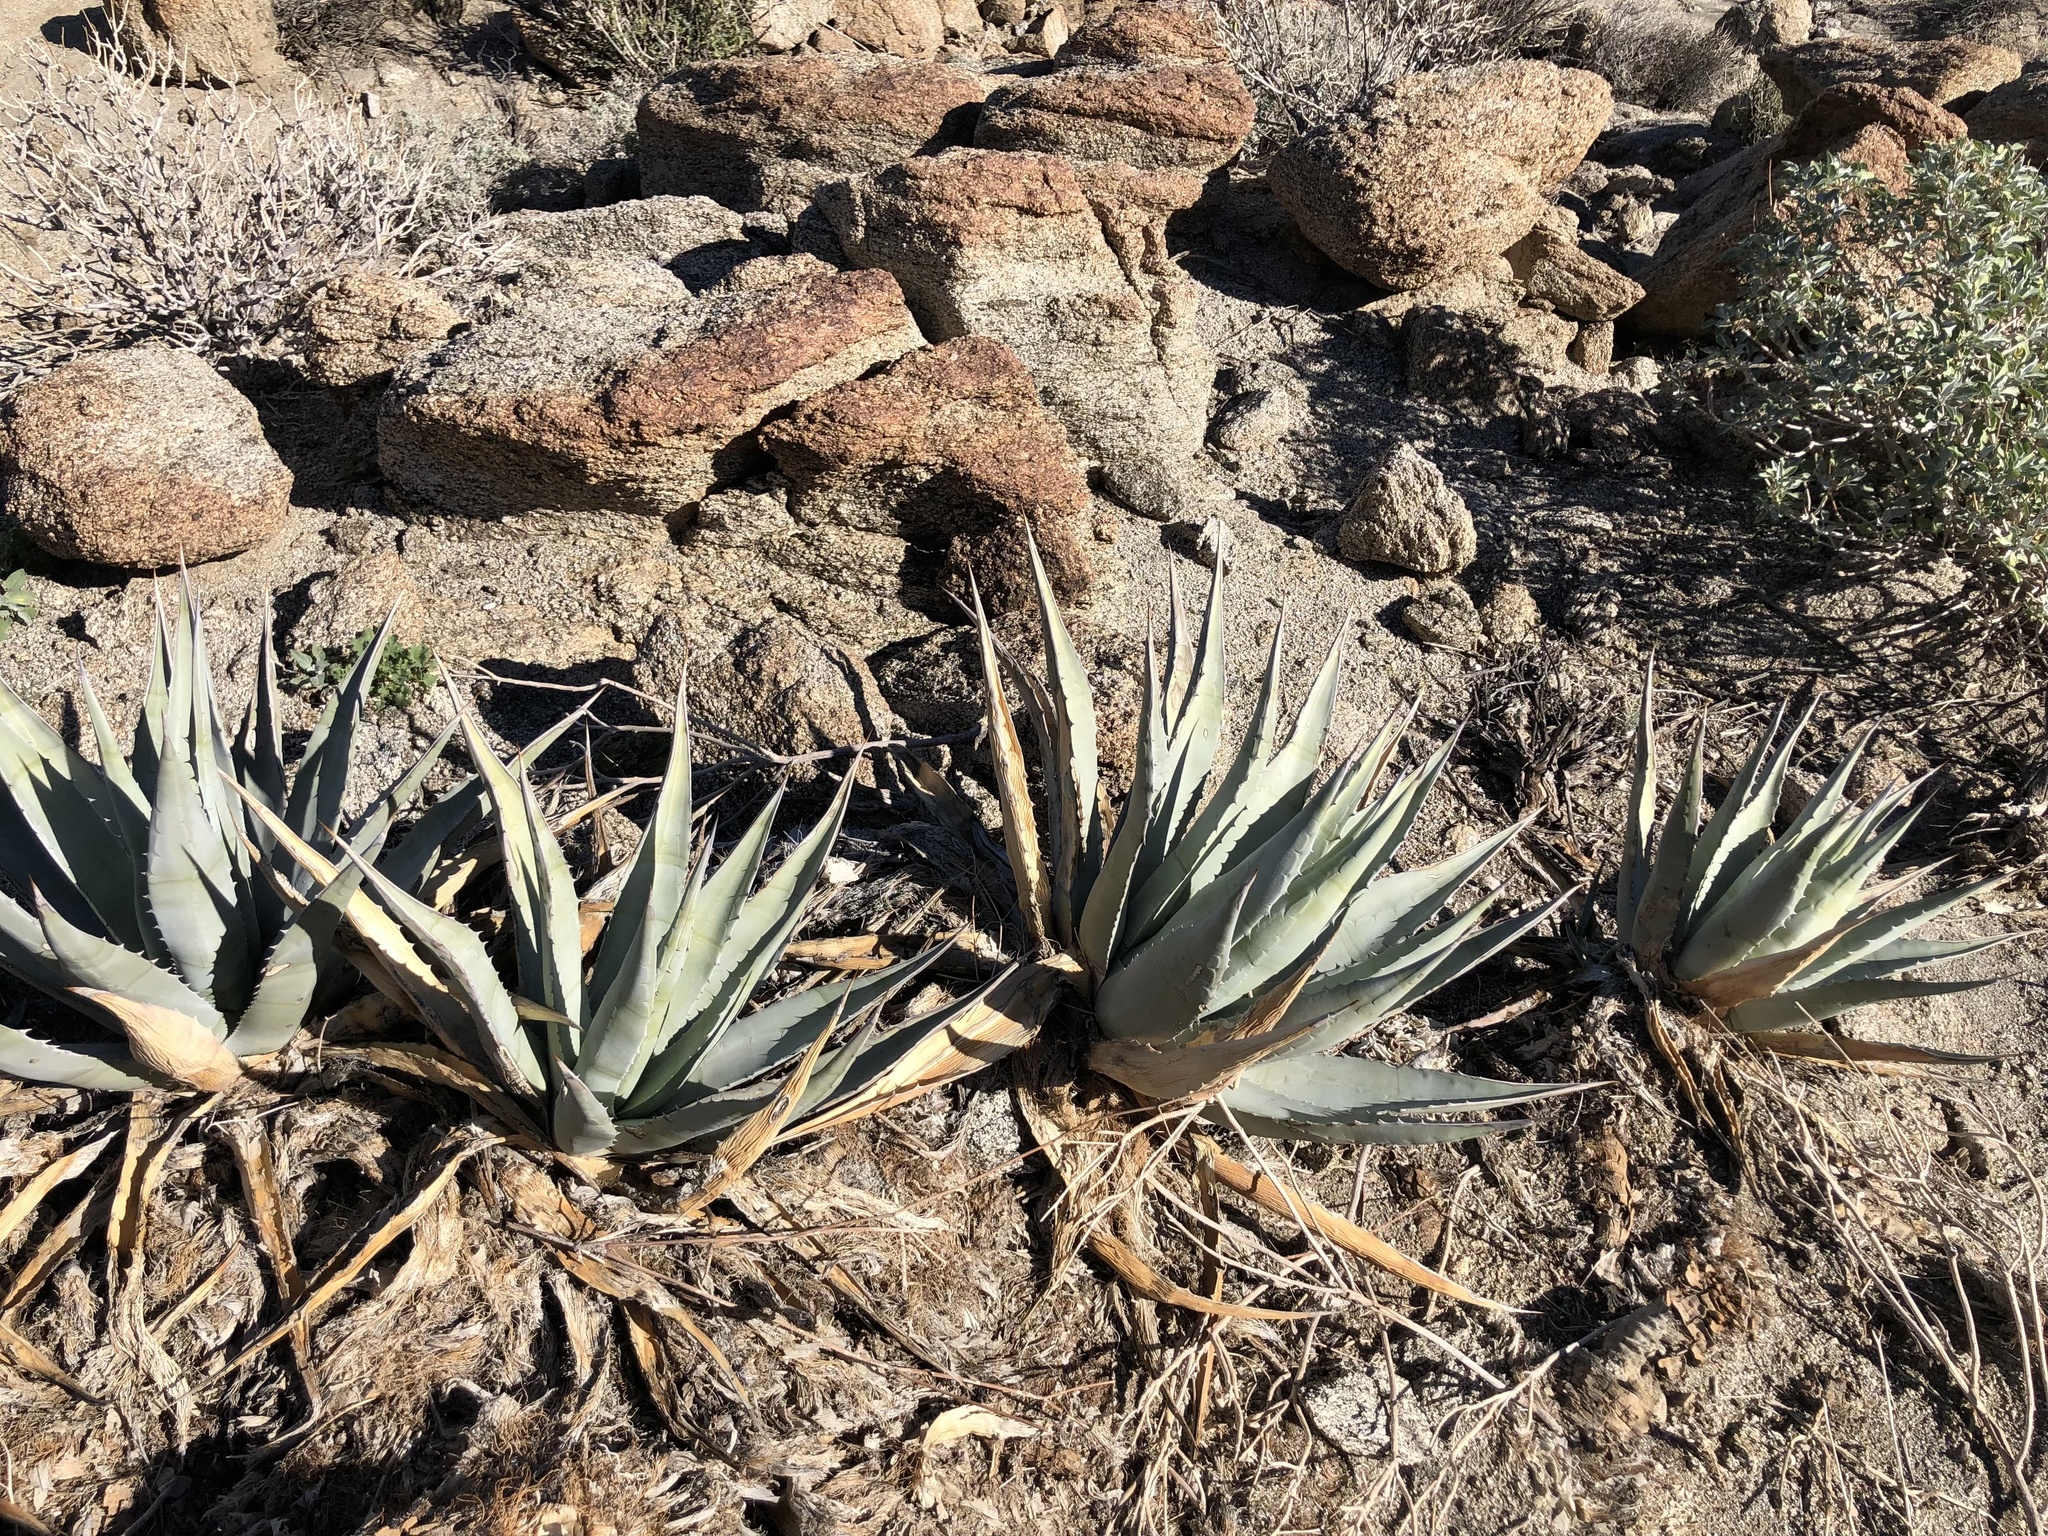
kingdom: Plantae
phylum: Tracheophyta
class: Liliopsida
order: Asparagales
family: Asparagaceae
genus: Agave
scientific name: Agave deserti
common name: Desert agave
